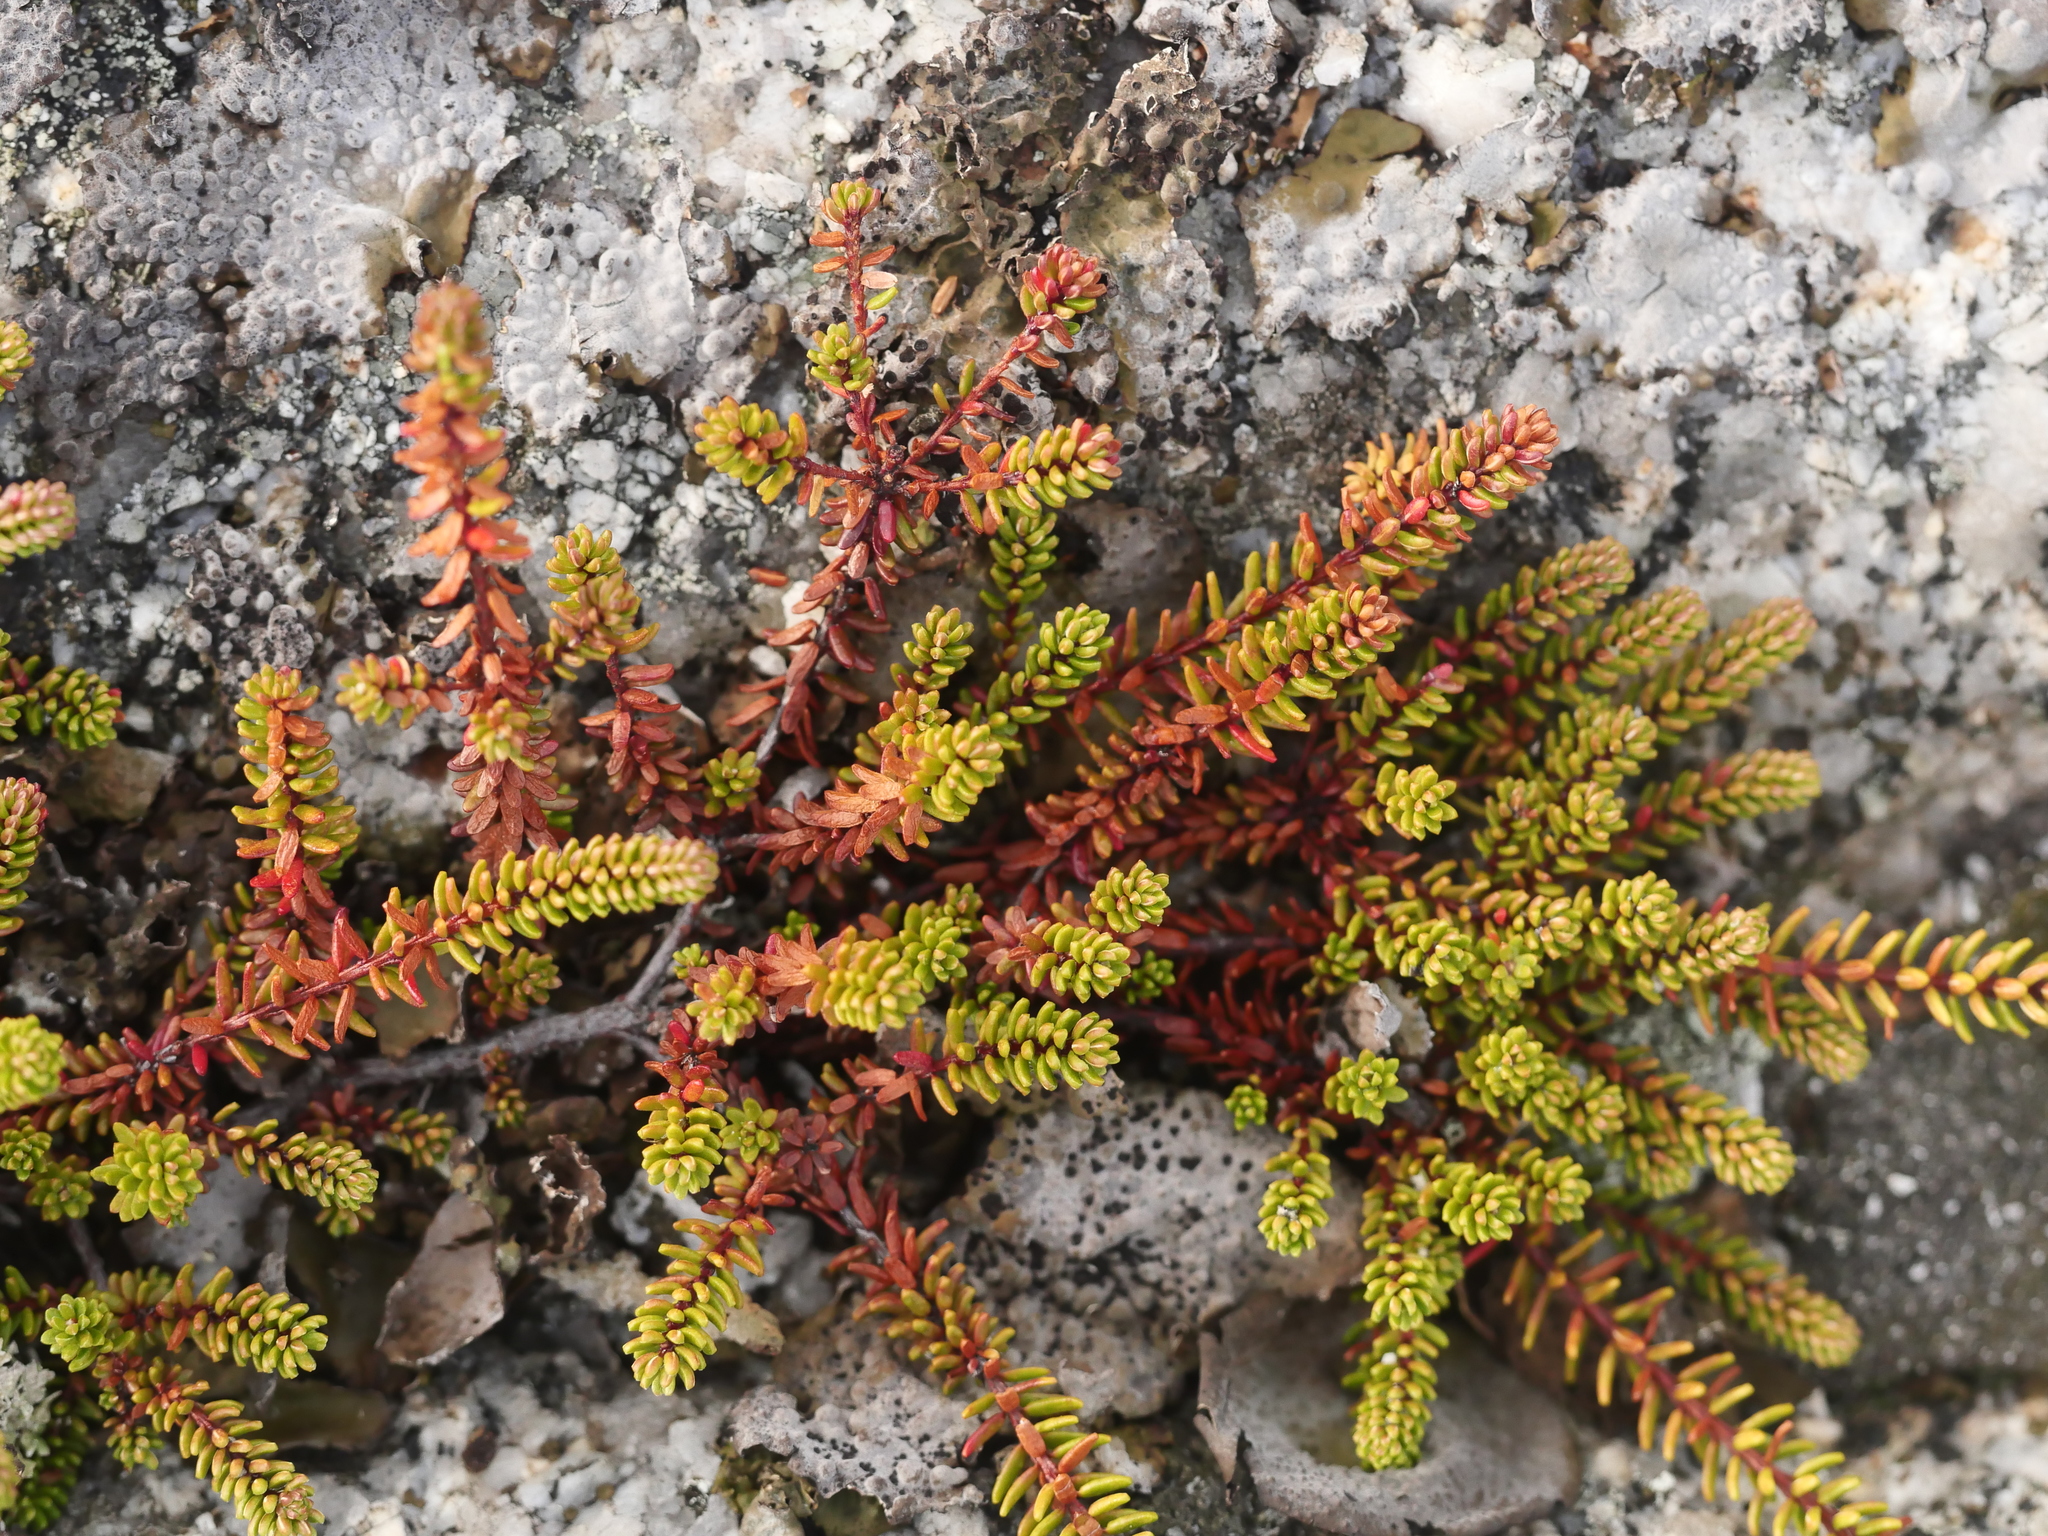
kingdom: Plantae
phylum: Tracheophyta
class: Magnoliopsida
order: Ericales
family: Ericaceae
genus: Empetrum
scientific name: Empetrum nigrum
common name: Black crowberry
